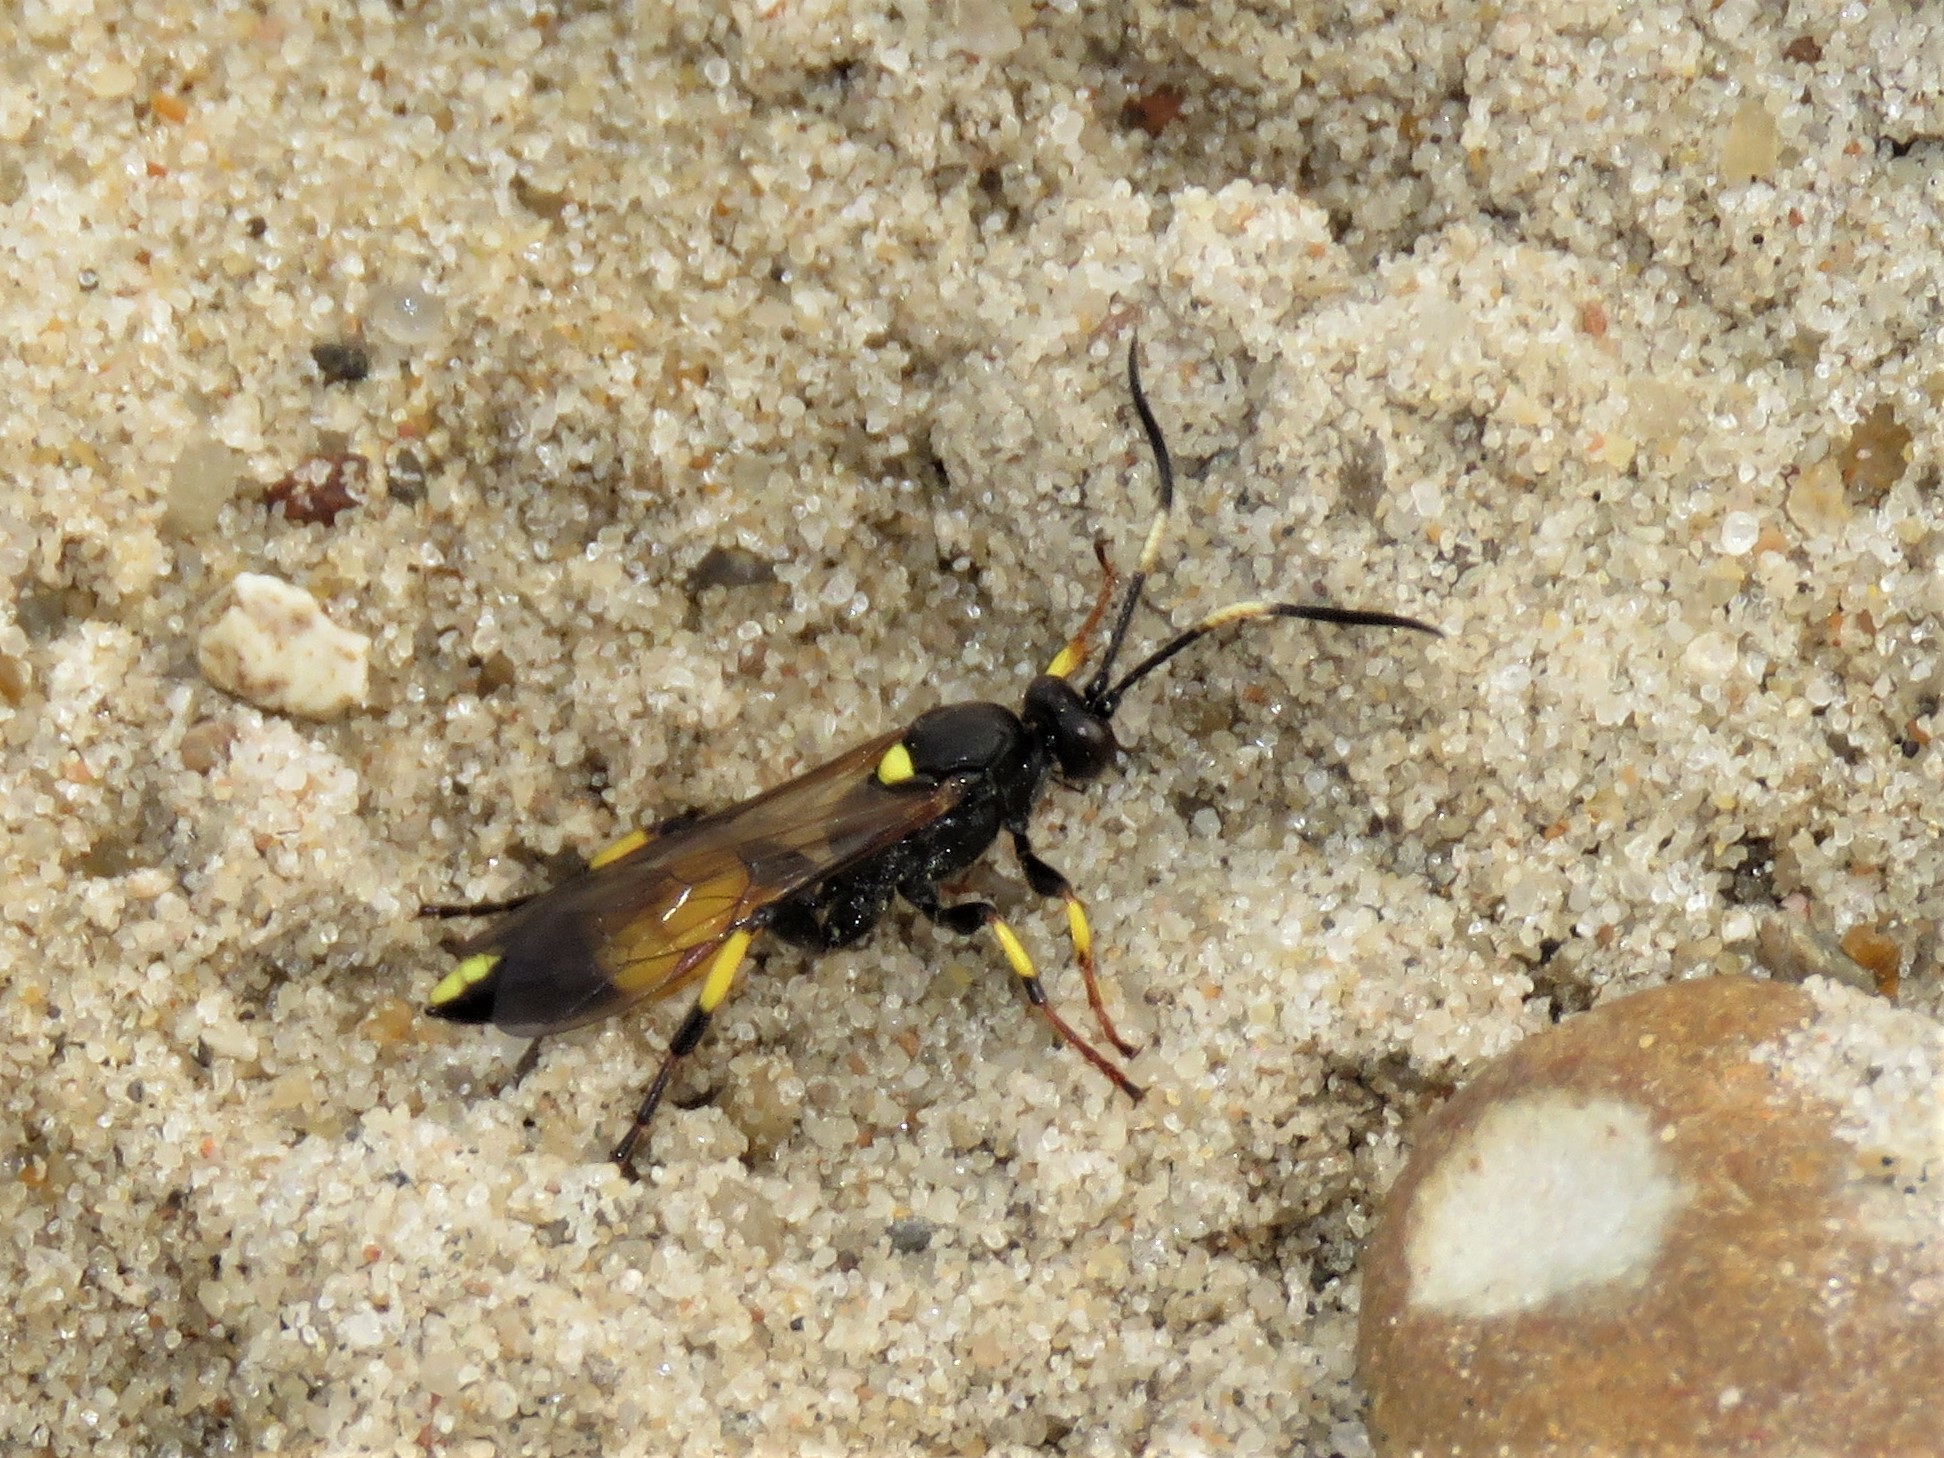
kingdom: Animalia
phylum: Arthropoda
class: Insecta
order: Hymenoptera
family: Ichneumonidae
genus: Ichneumon
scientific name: Ichneumon stramentor
